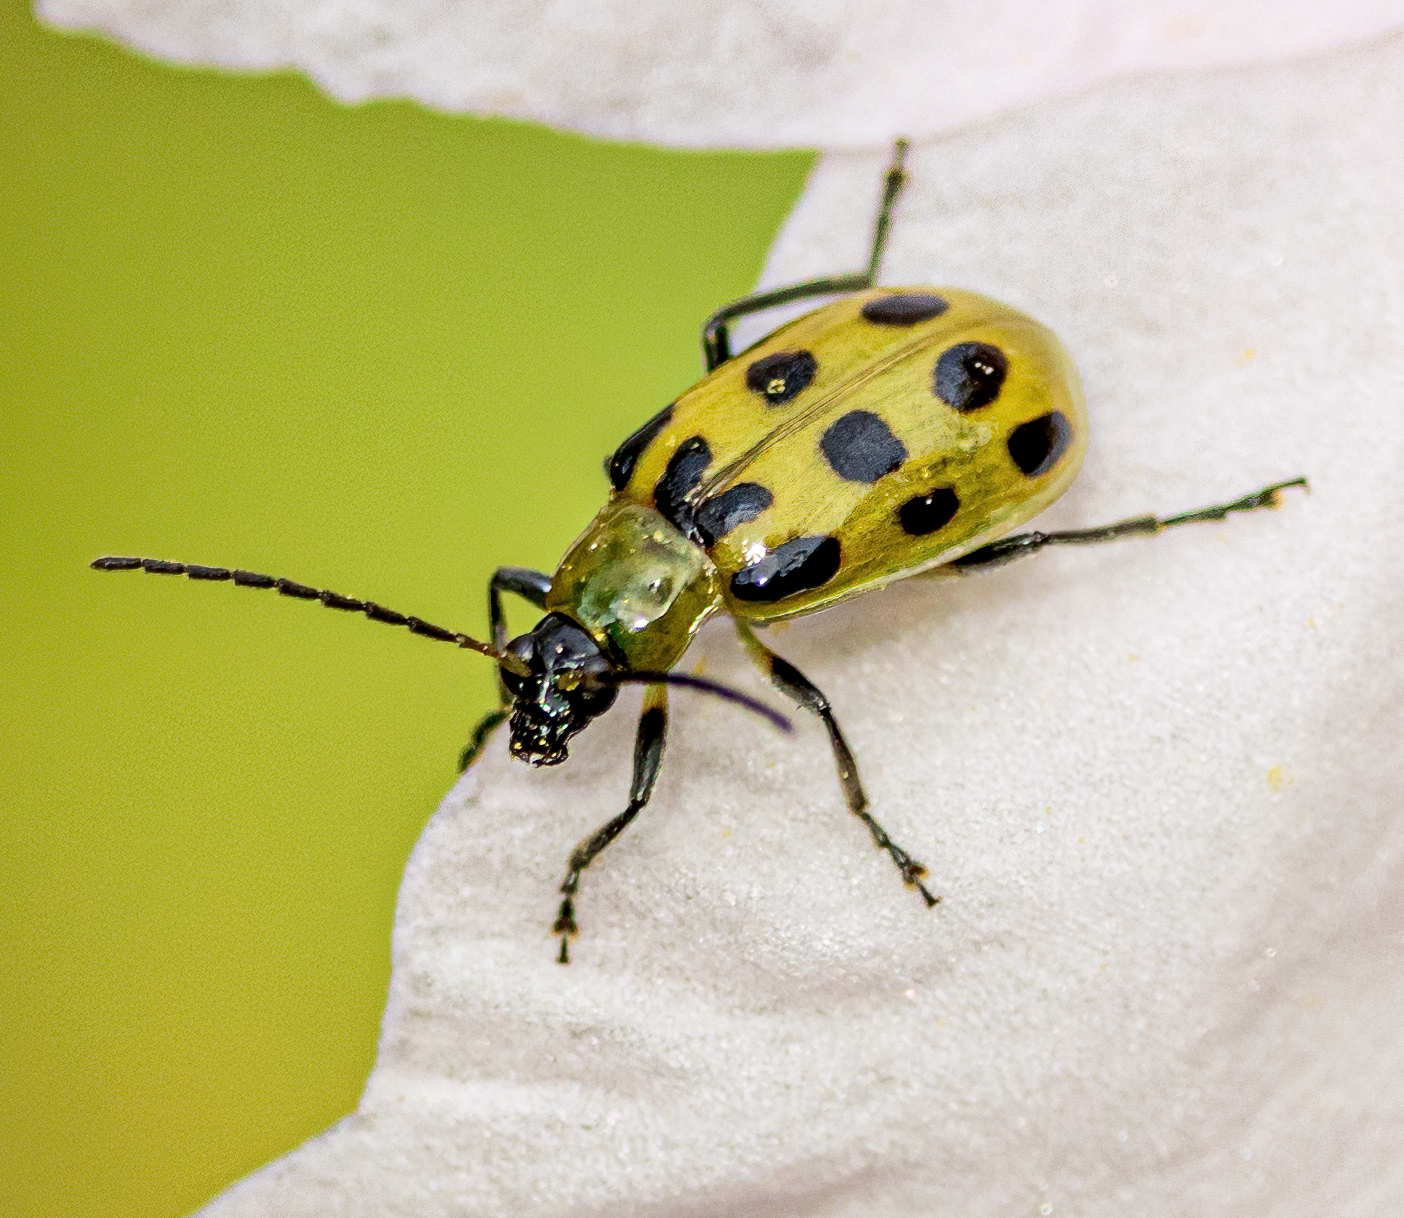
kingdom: Animalia
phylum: Arthropoda
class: Insecta
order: Coleoptera
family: Chrysomelidae
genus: Diabrotica
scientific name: Diabrotica undecimpunctata
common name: Spotted cucumber beetle
